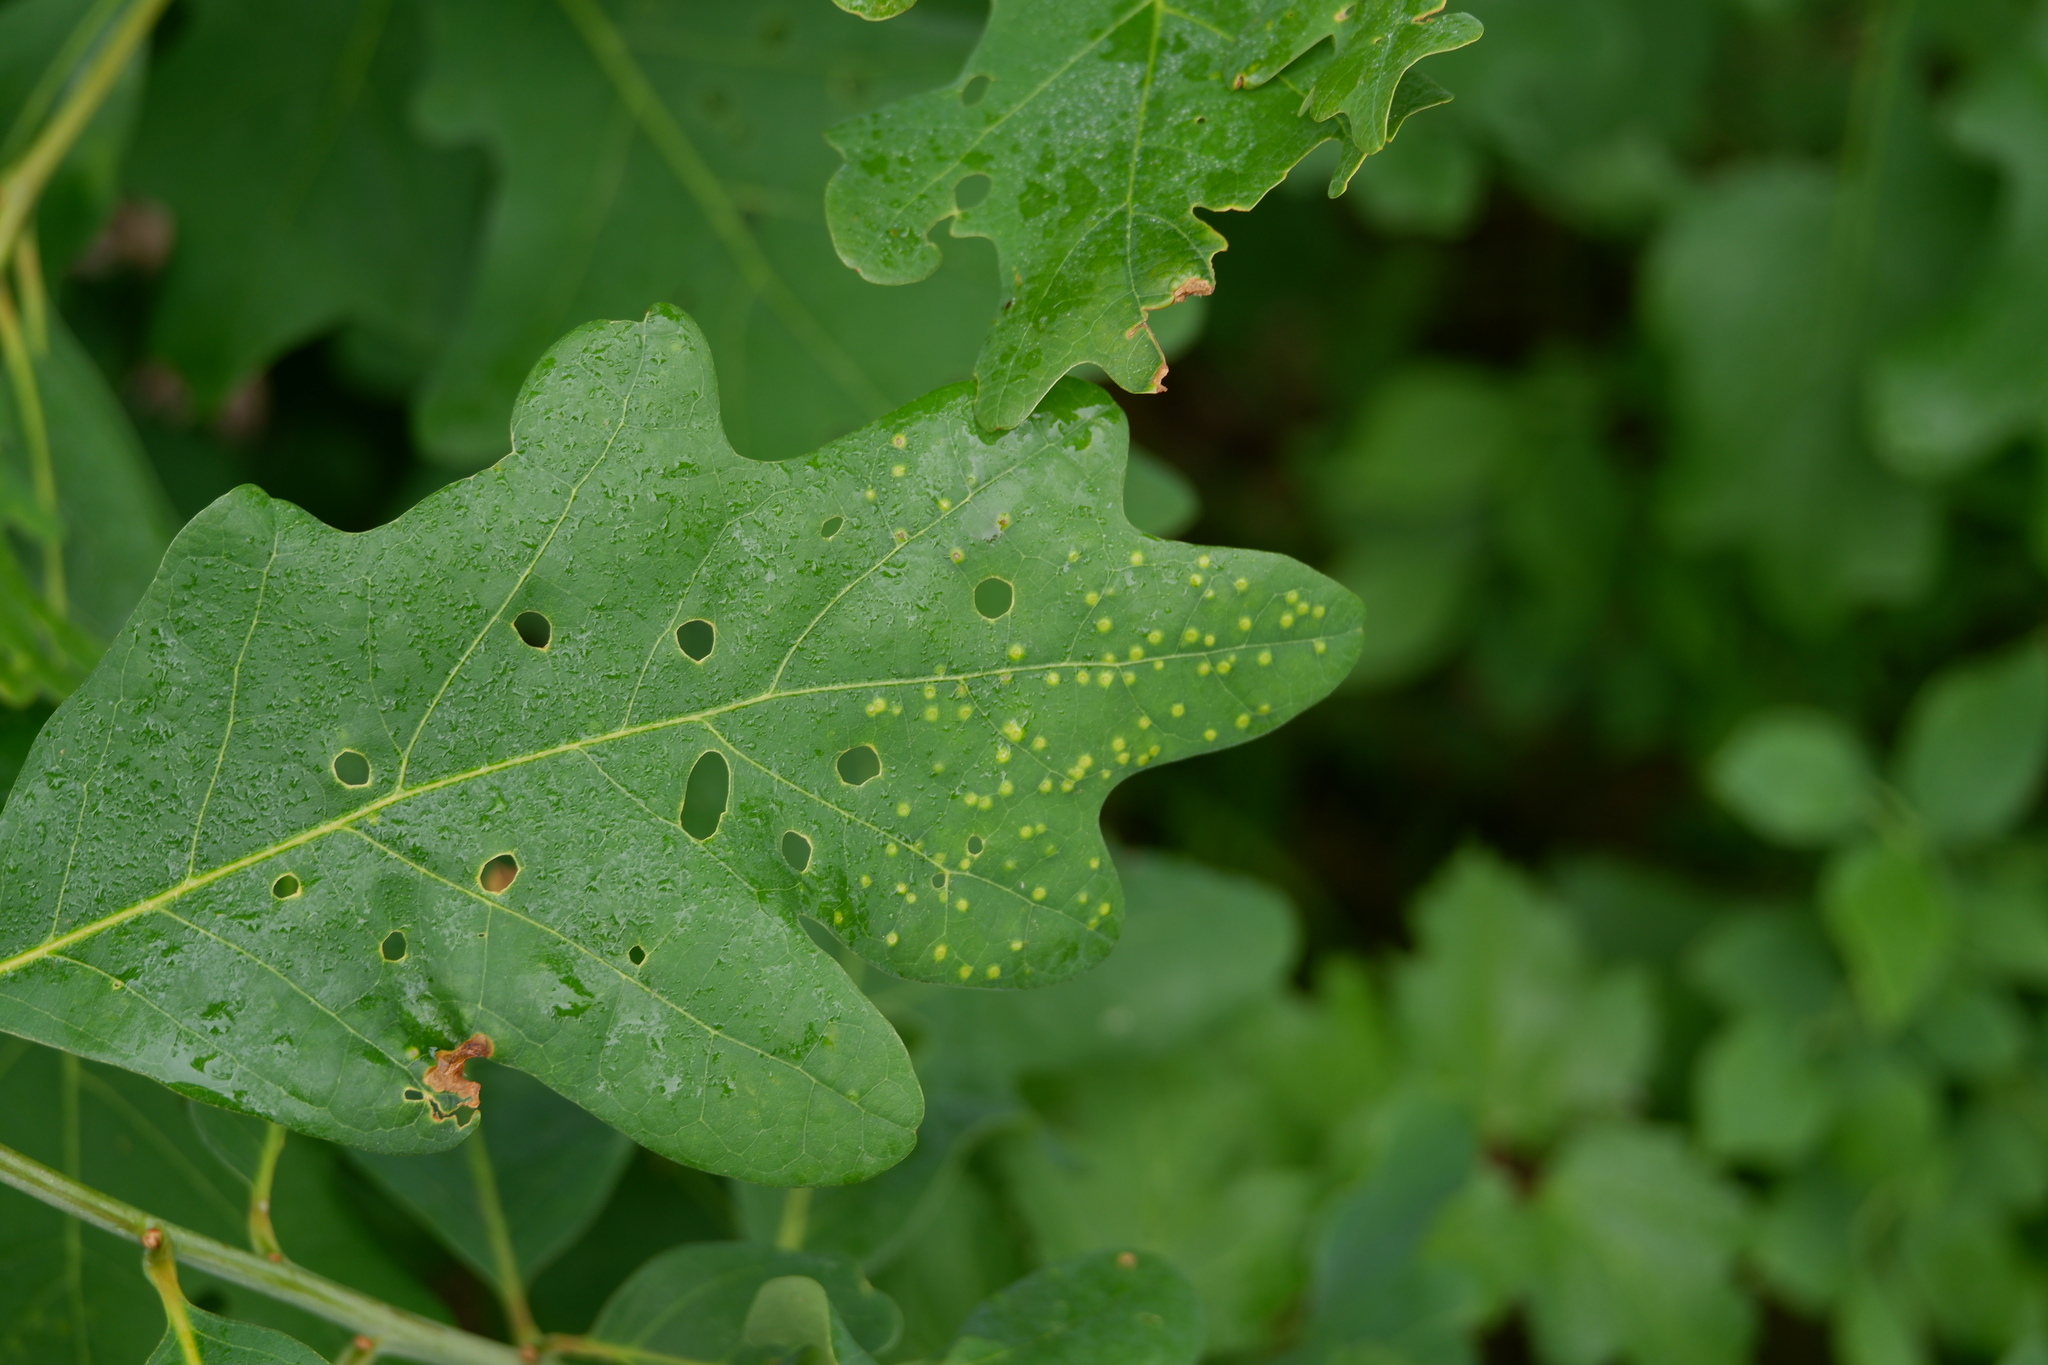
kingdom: Animalia
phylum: Arthropoda
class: Insecta
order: Hymenoptera
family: Cynipidae
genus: Neuroterus
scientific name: Neuroterus
